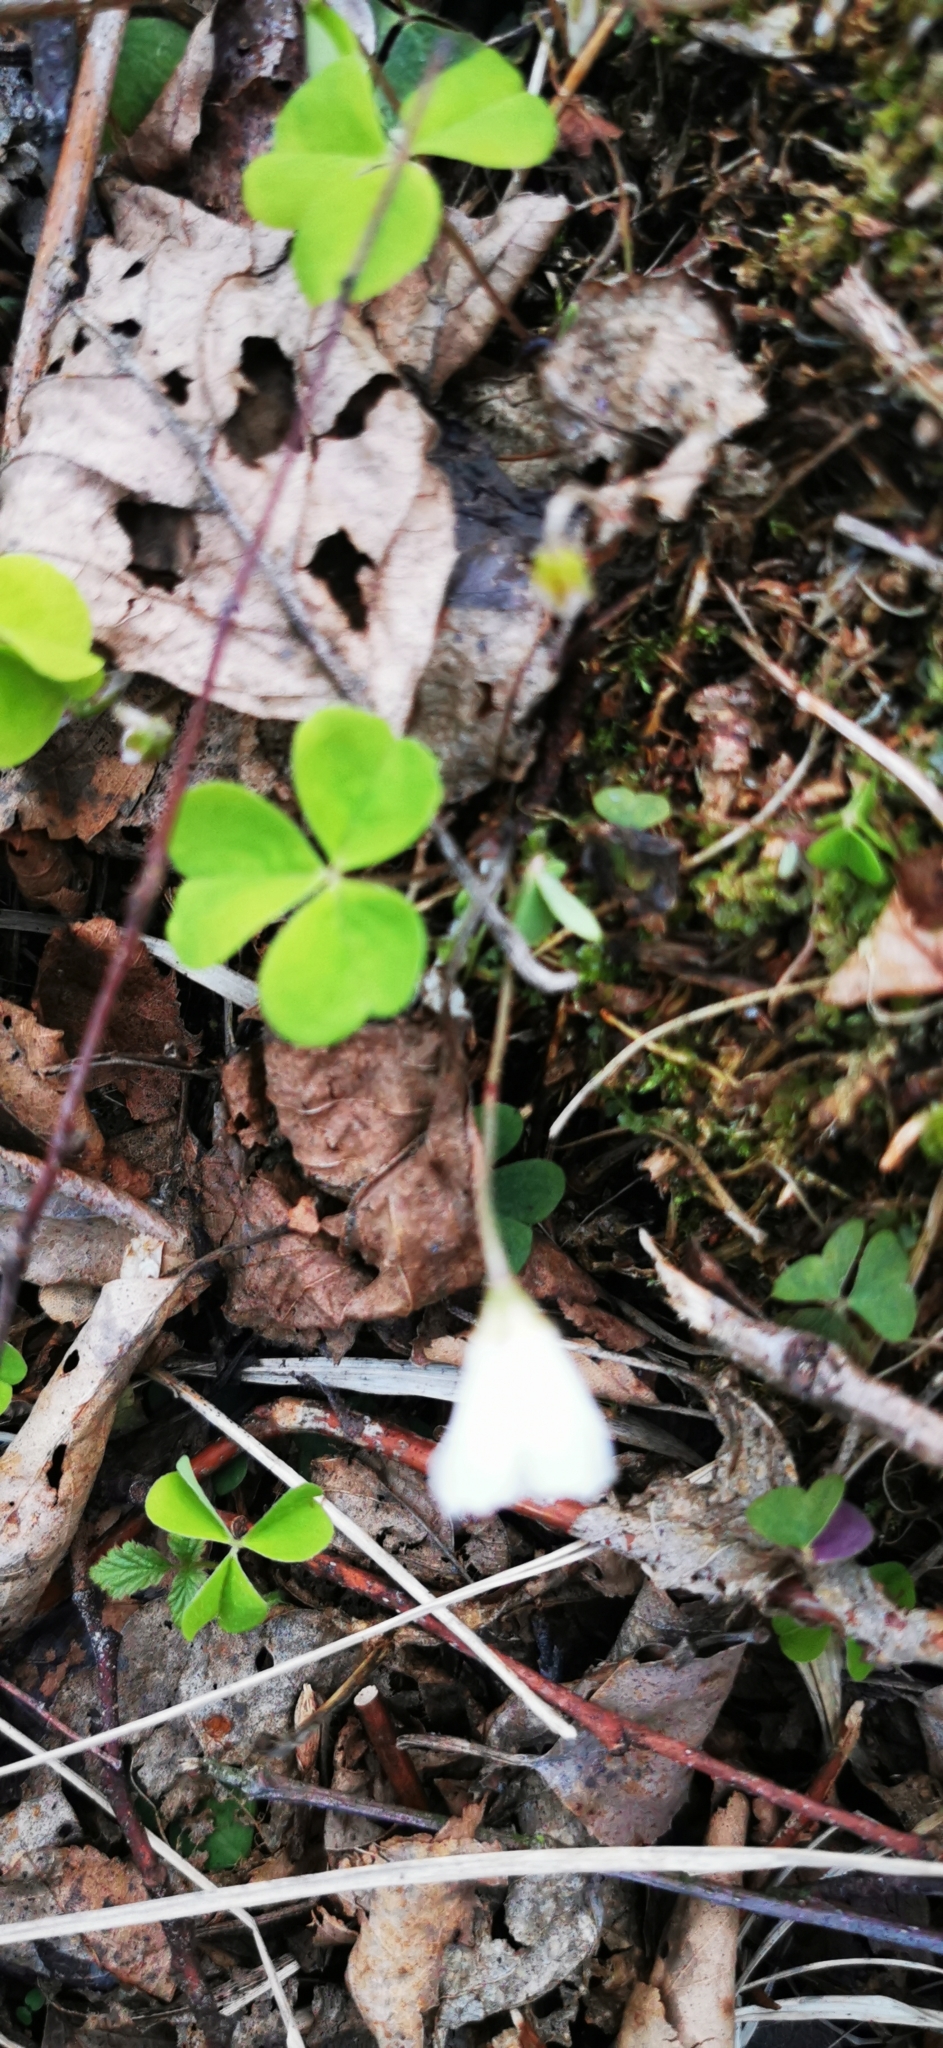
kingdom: Plantae
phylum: Tracheophyta
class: Magnoliopsida
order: Oxalidales
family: Oxalidaceae
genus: Oxalis
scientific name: Oxalis acetosella
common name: Wood-sorrel
